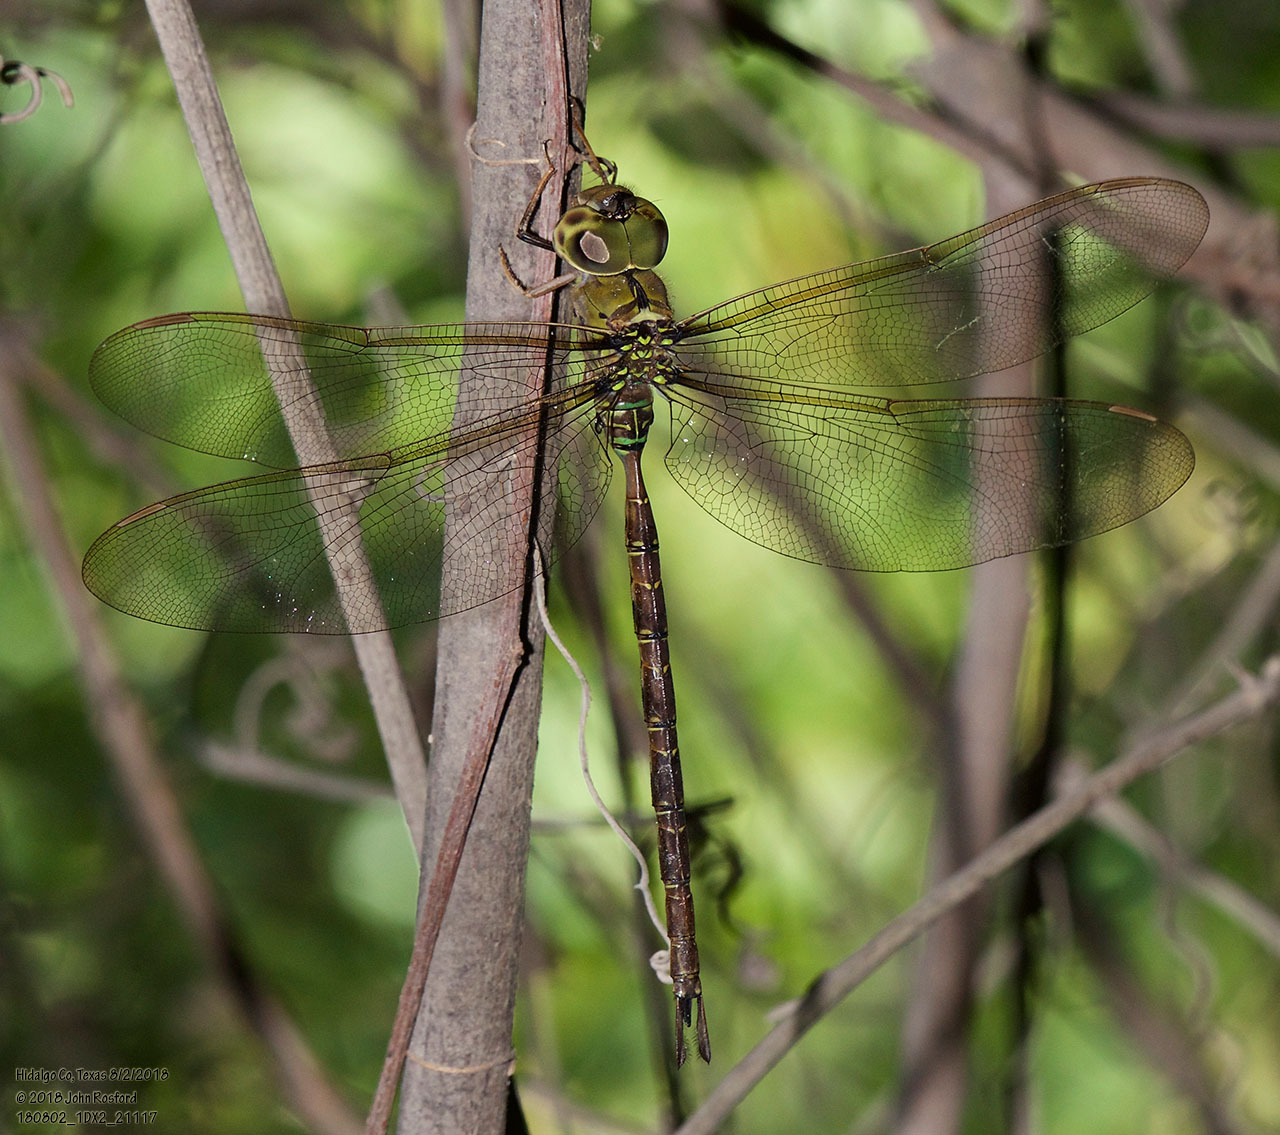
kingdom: Animalia
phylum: Arthropoda
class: Insecta
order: Odonata
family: Aeshnidae
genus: Gynacantha
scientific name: Gynacantha mexicana
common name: Bar-sided darner
